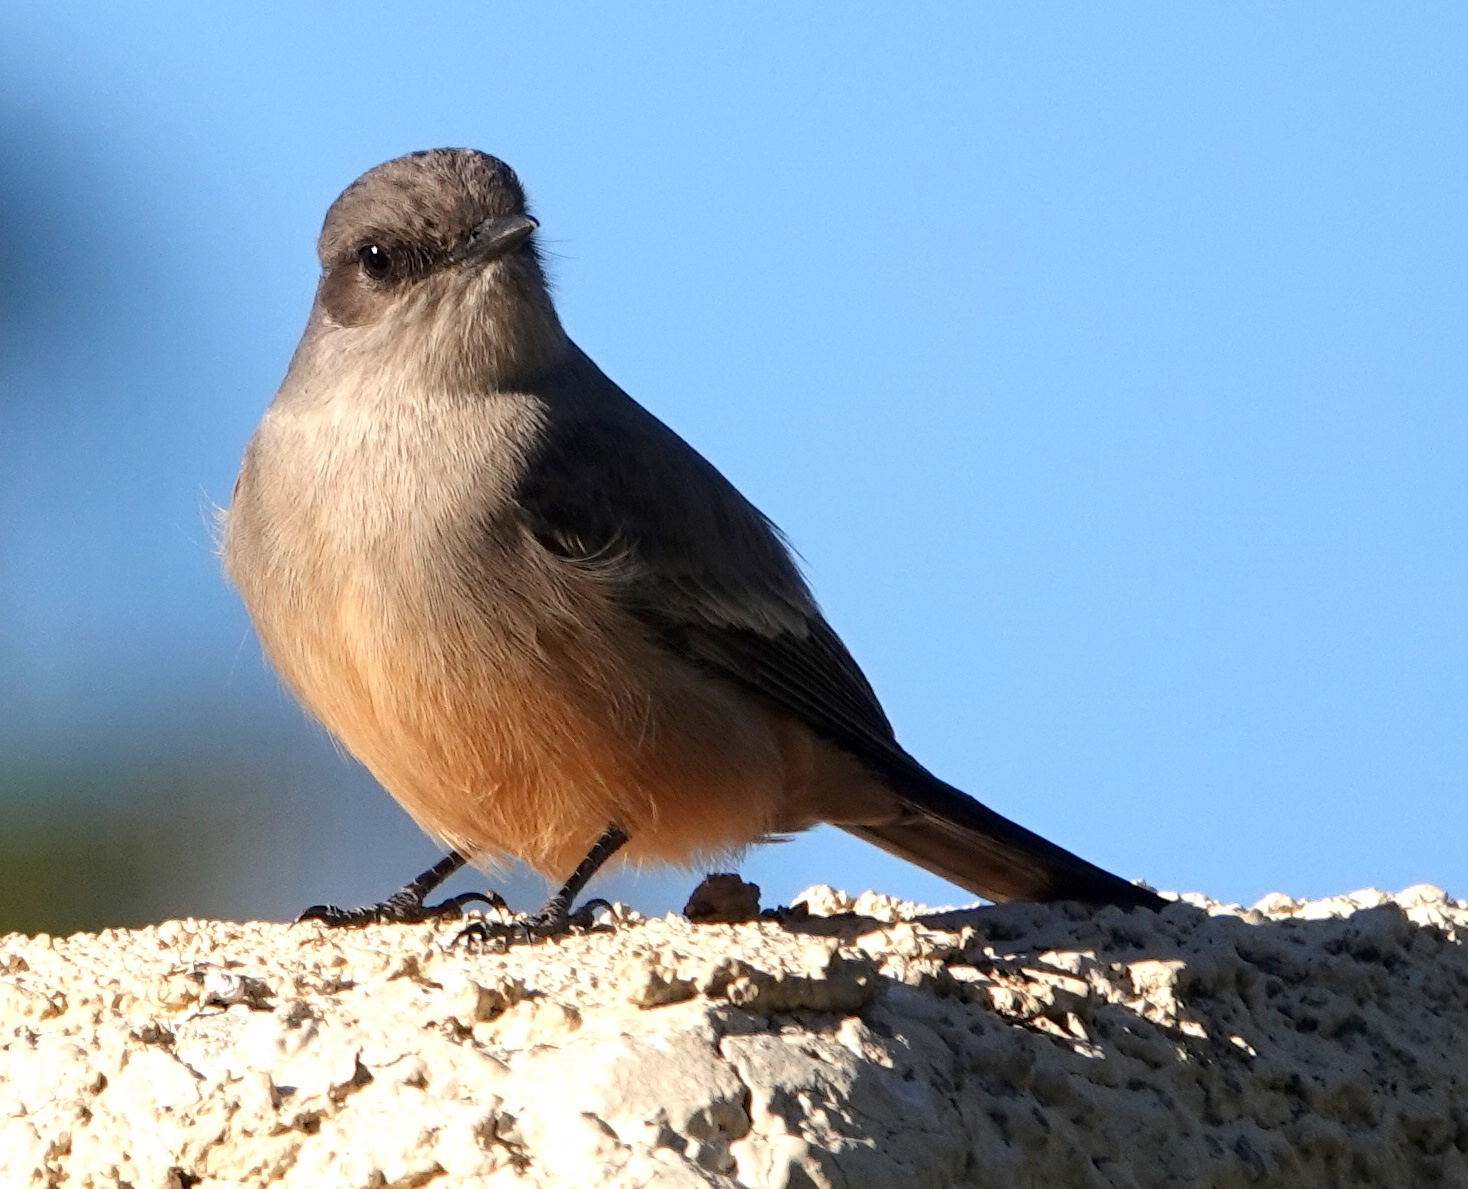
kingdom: Animalia
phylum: Chordata
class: Aves
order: Passeriformes
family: Tyrannidae
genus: Sayornis
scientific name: Sayornis saya
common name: Say's phoebe
